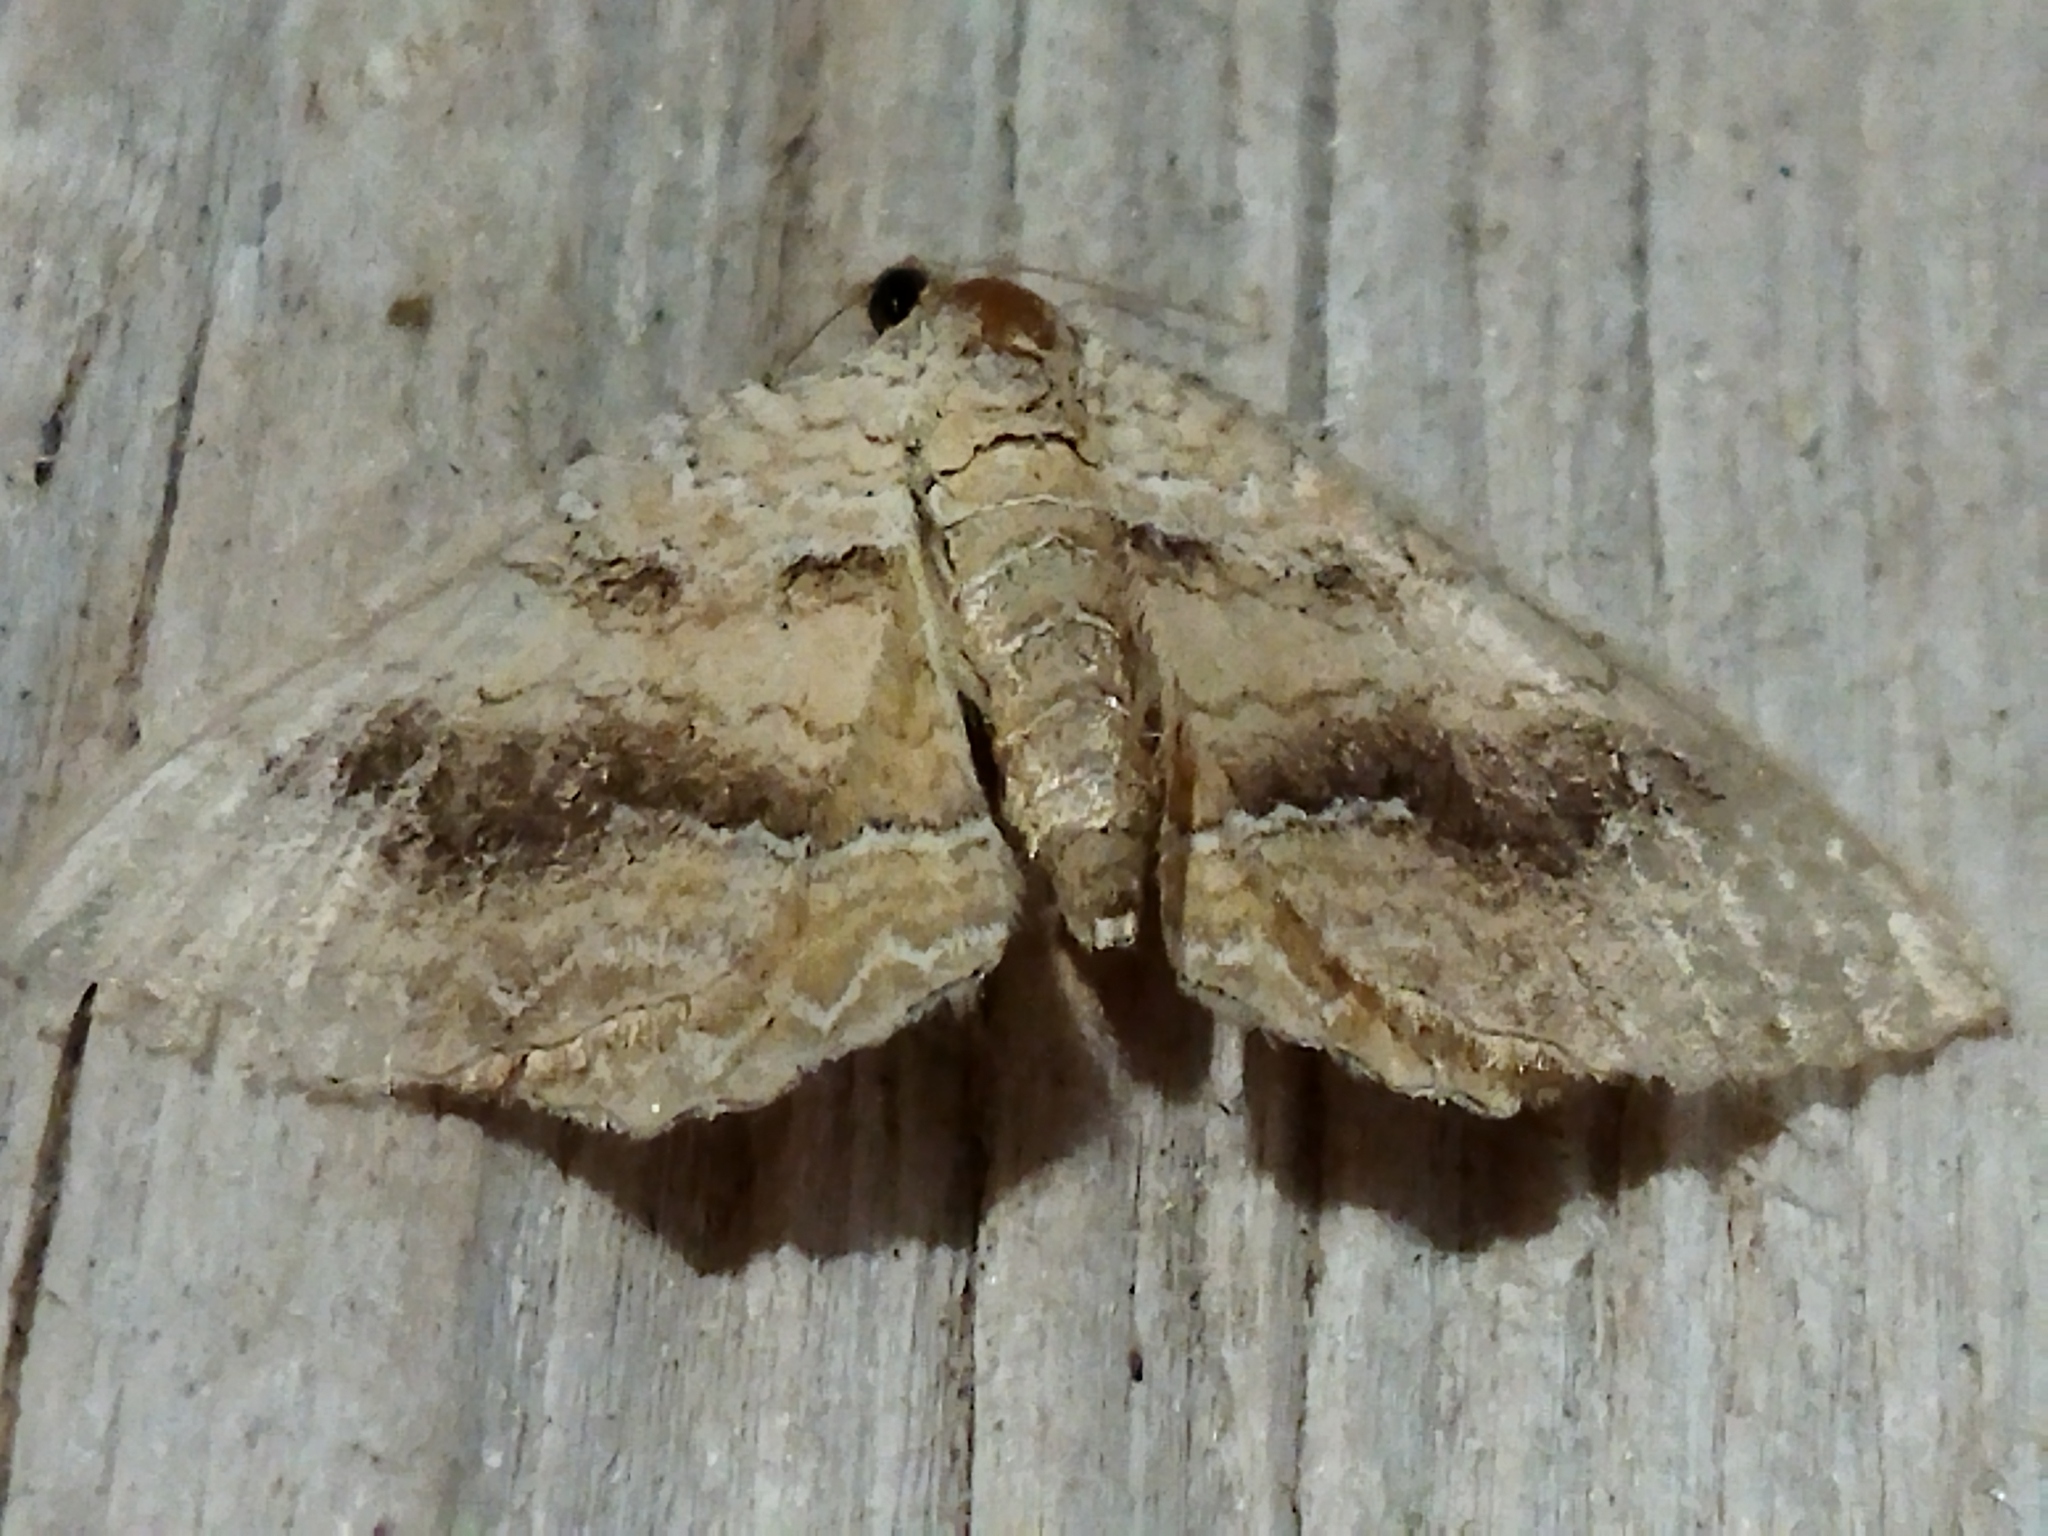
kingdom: Animalia
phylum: Arthropoda
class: Insecta
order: Lepidoptera
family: Geometridae
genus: Camptogramma
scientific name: Camptogramma bilineata
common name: Yellow shell
